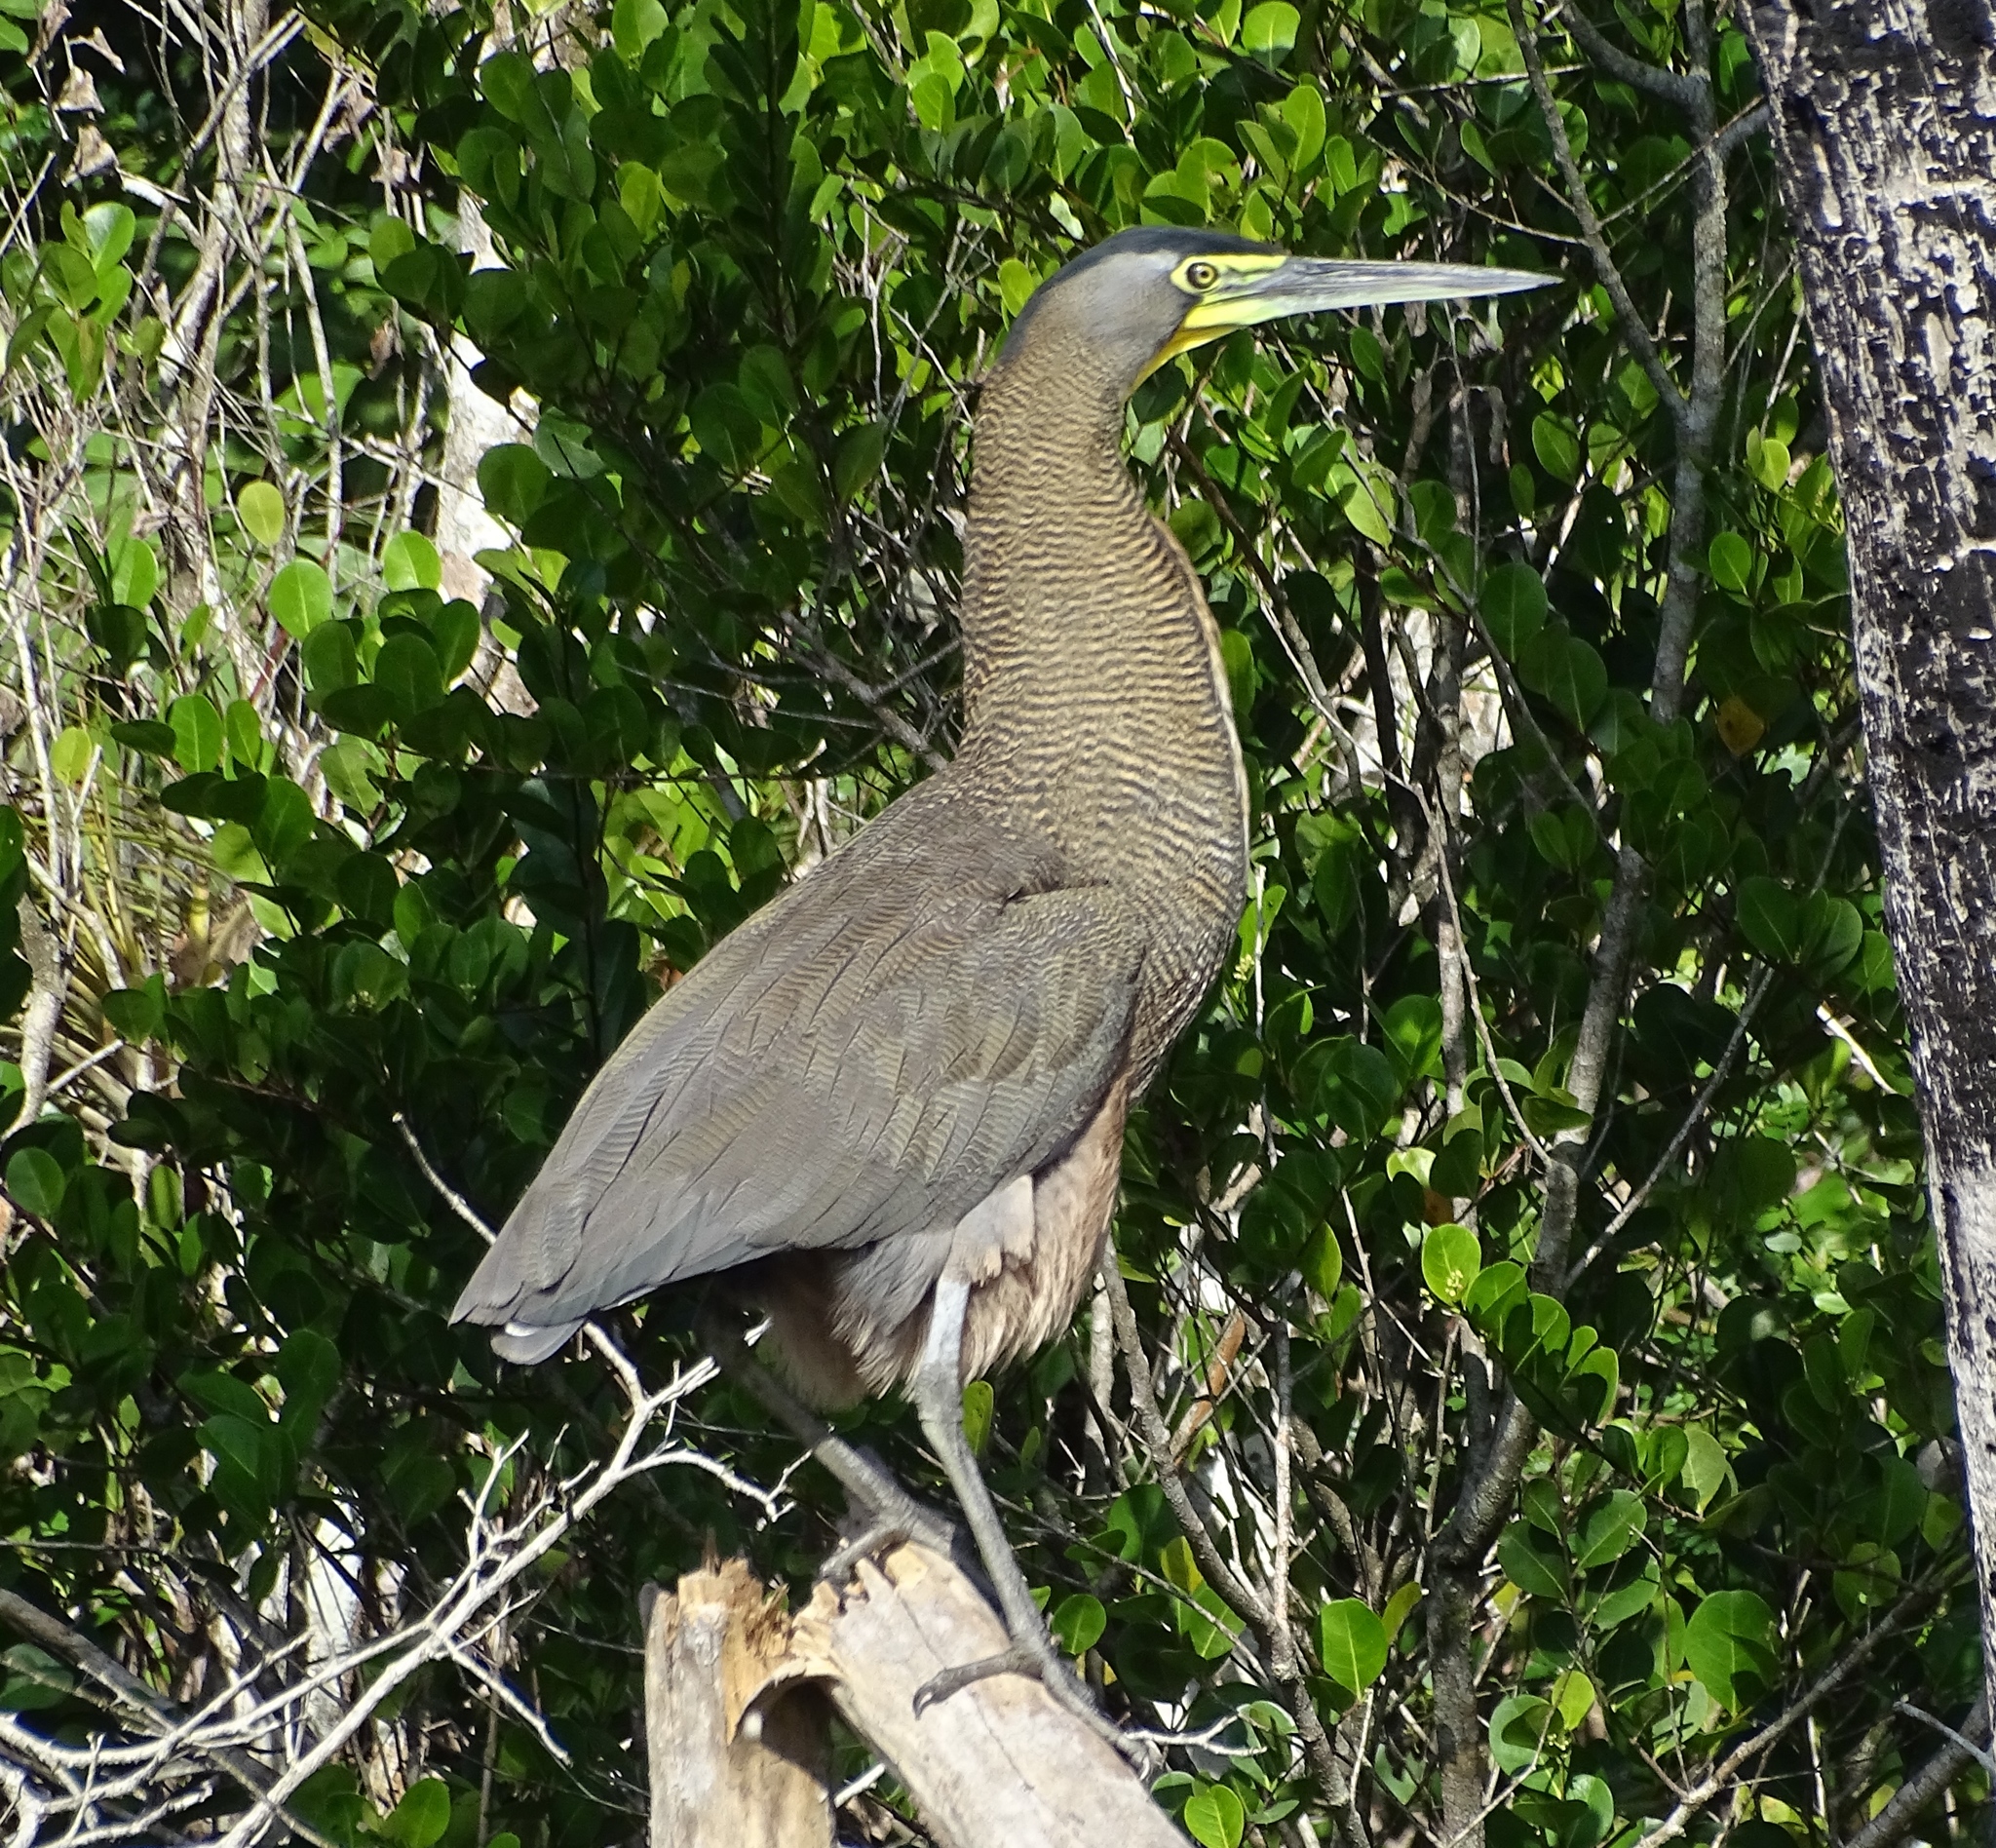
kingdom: Animalia
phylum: Chordata
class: Aves
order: Pelecaniformes
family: Ardeidae
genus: Tigrisoma
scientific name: Tigrisoma mexicanum
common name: Bare-throated tiger-heron
